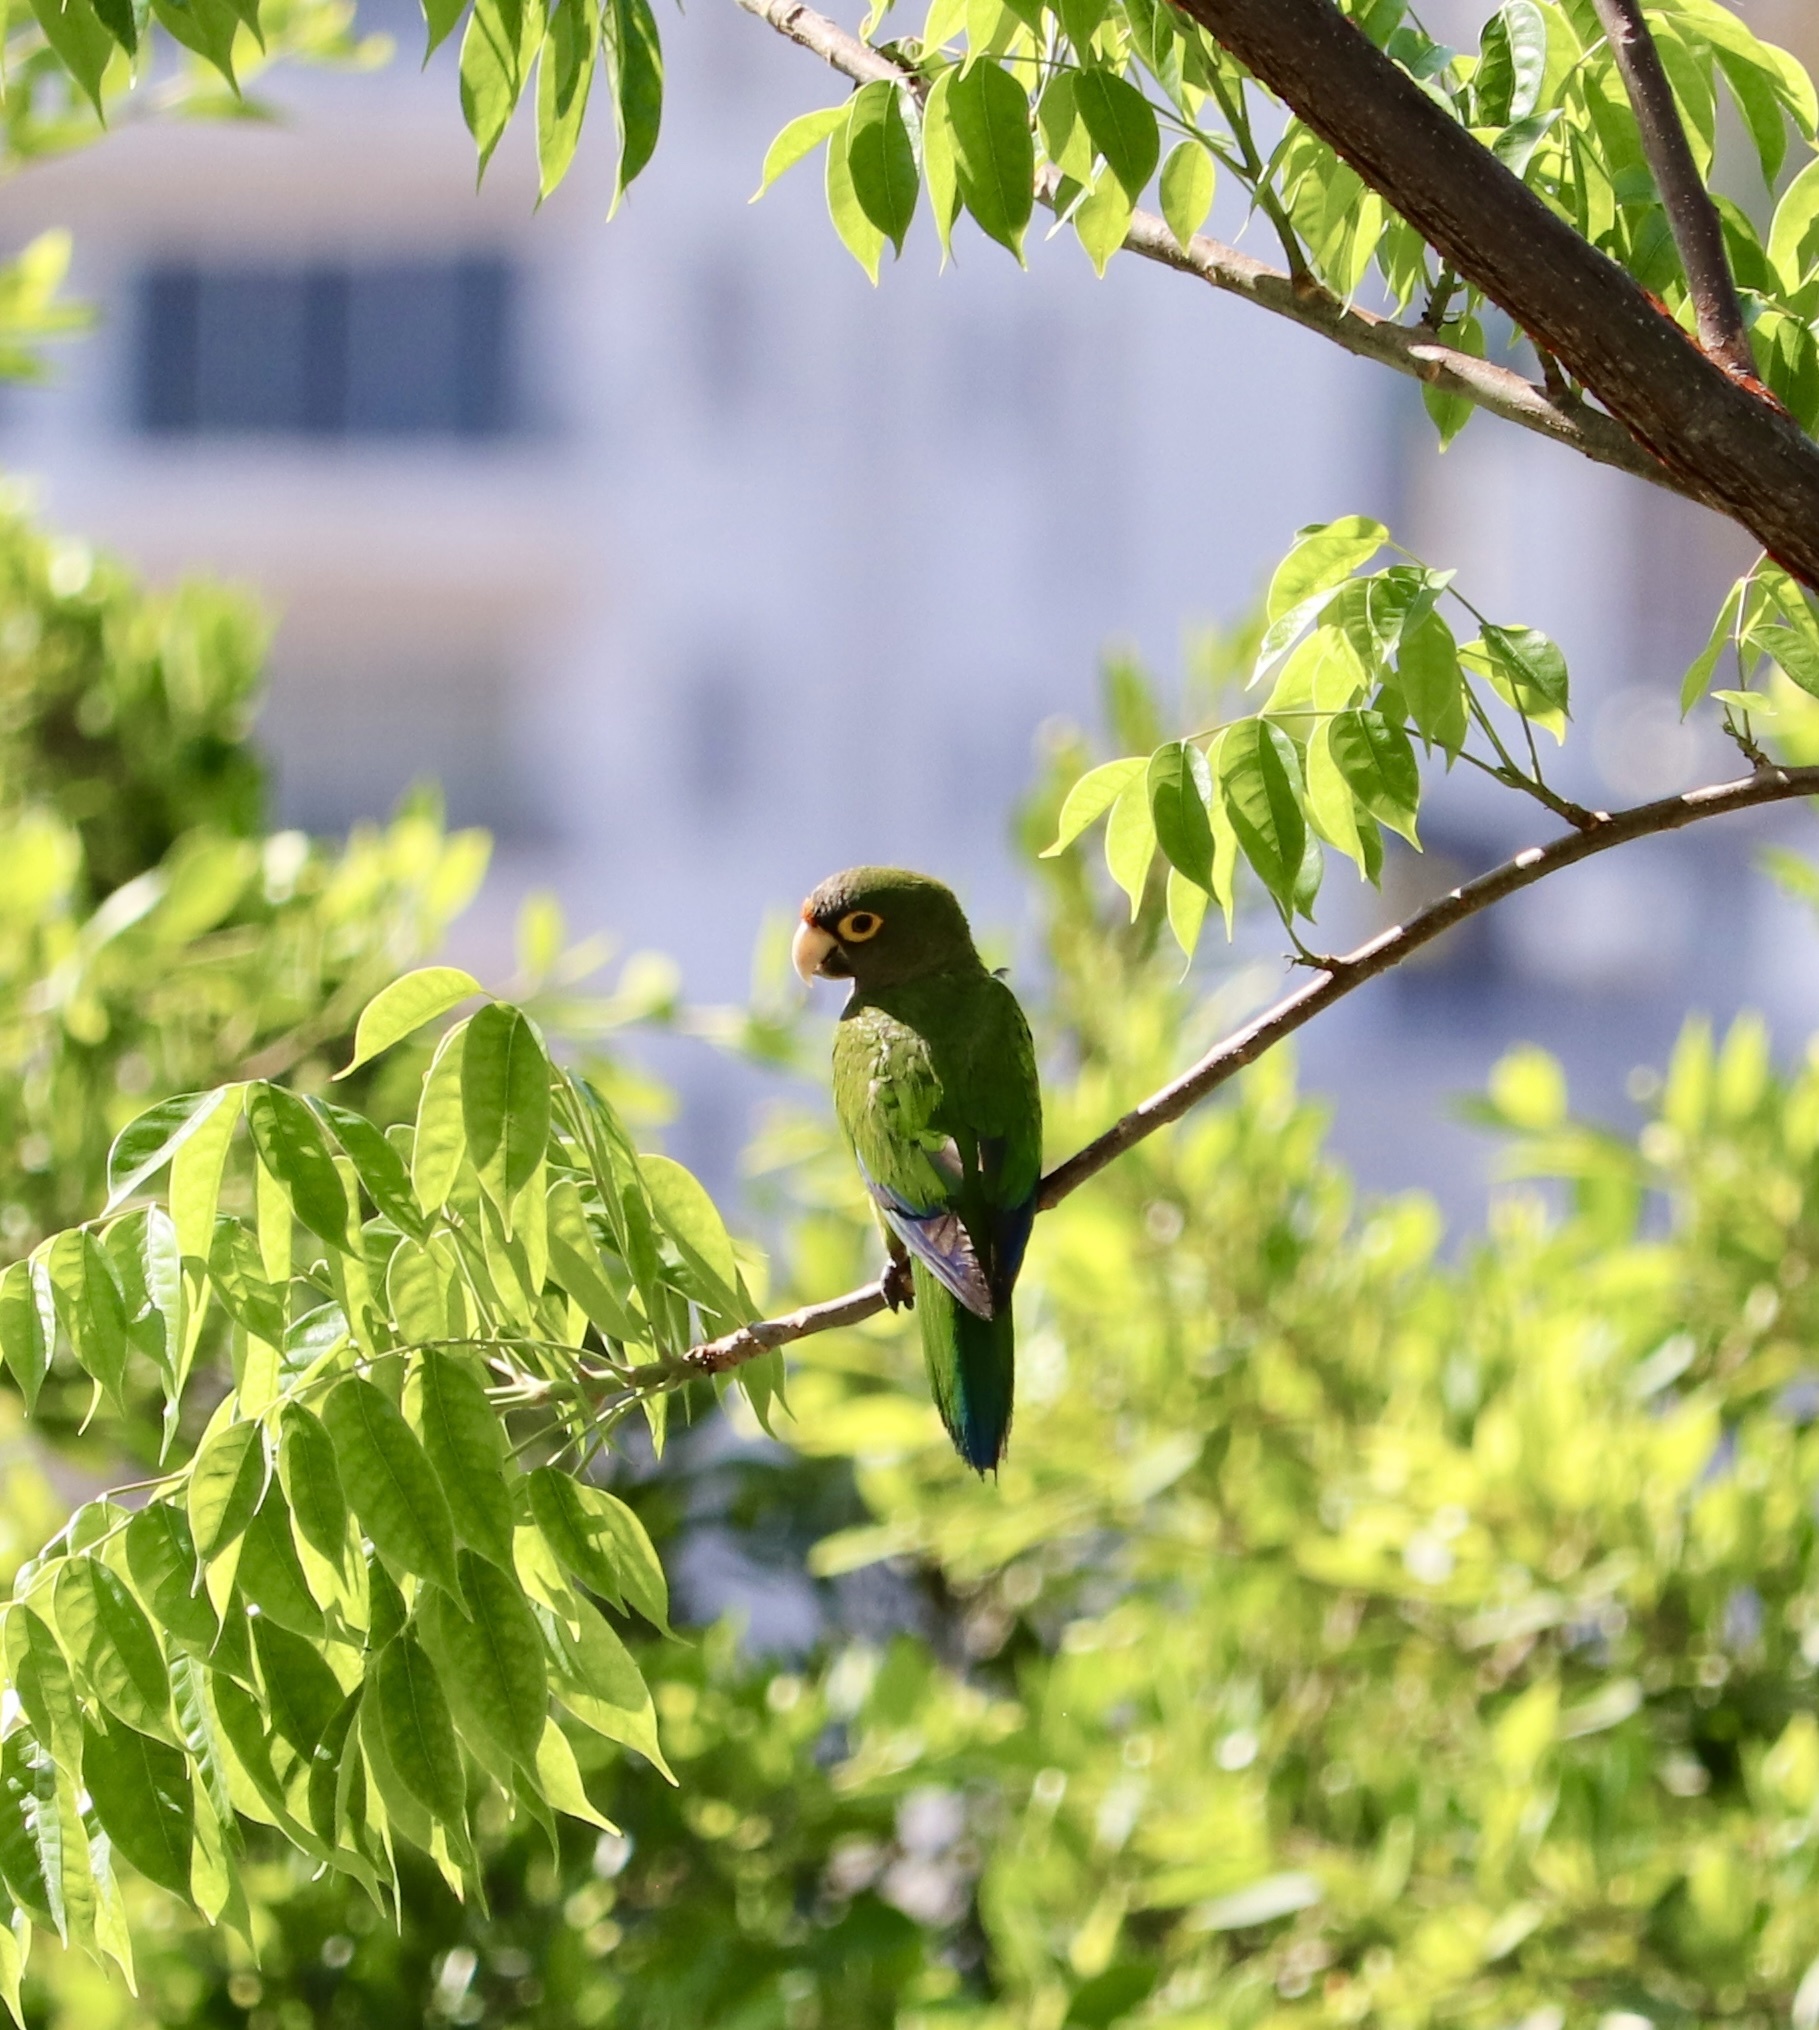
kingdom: Animalia
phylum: Chordata
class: Aves
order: Psittaciformes
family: Psittacidae
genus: Aratinga
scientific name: Aratinga canicularis
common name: Orange-fronted parakeet
